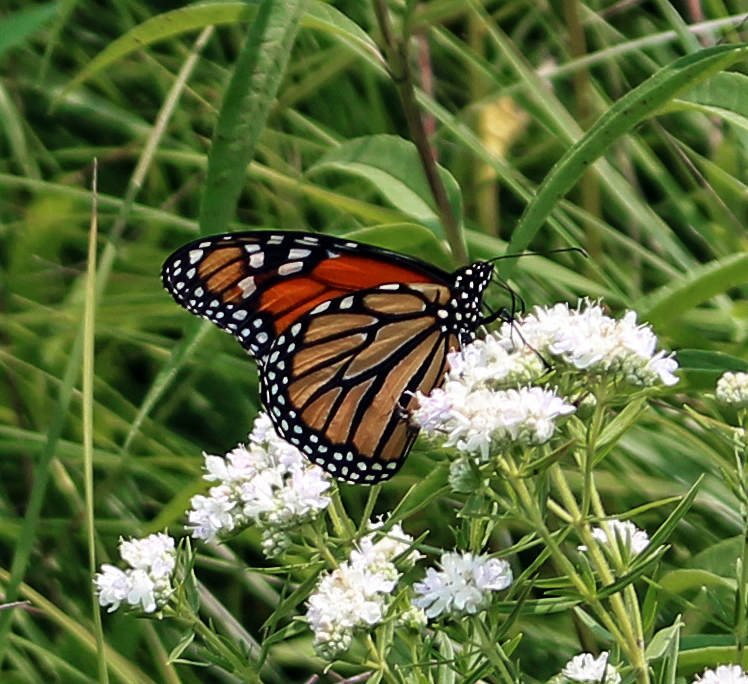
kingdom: Animalia
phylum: Arthropoda
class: Insecta
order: Lepidoptera
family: Nymphalidae
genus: Danaus
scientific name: Danaus plexippus
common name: Monarch
